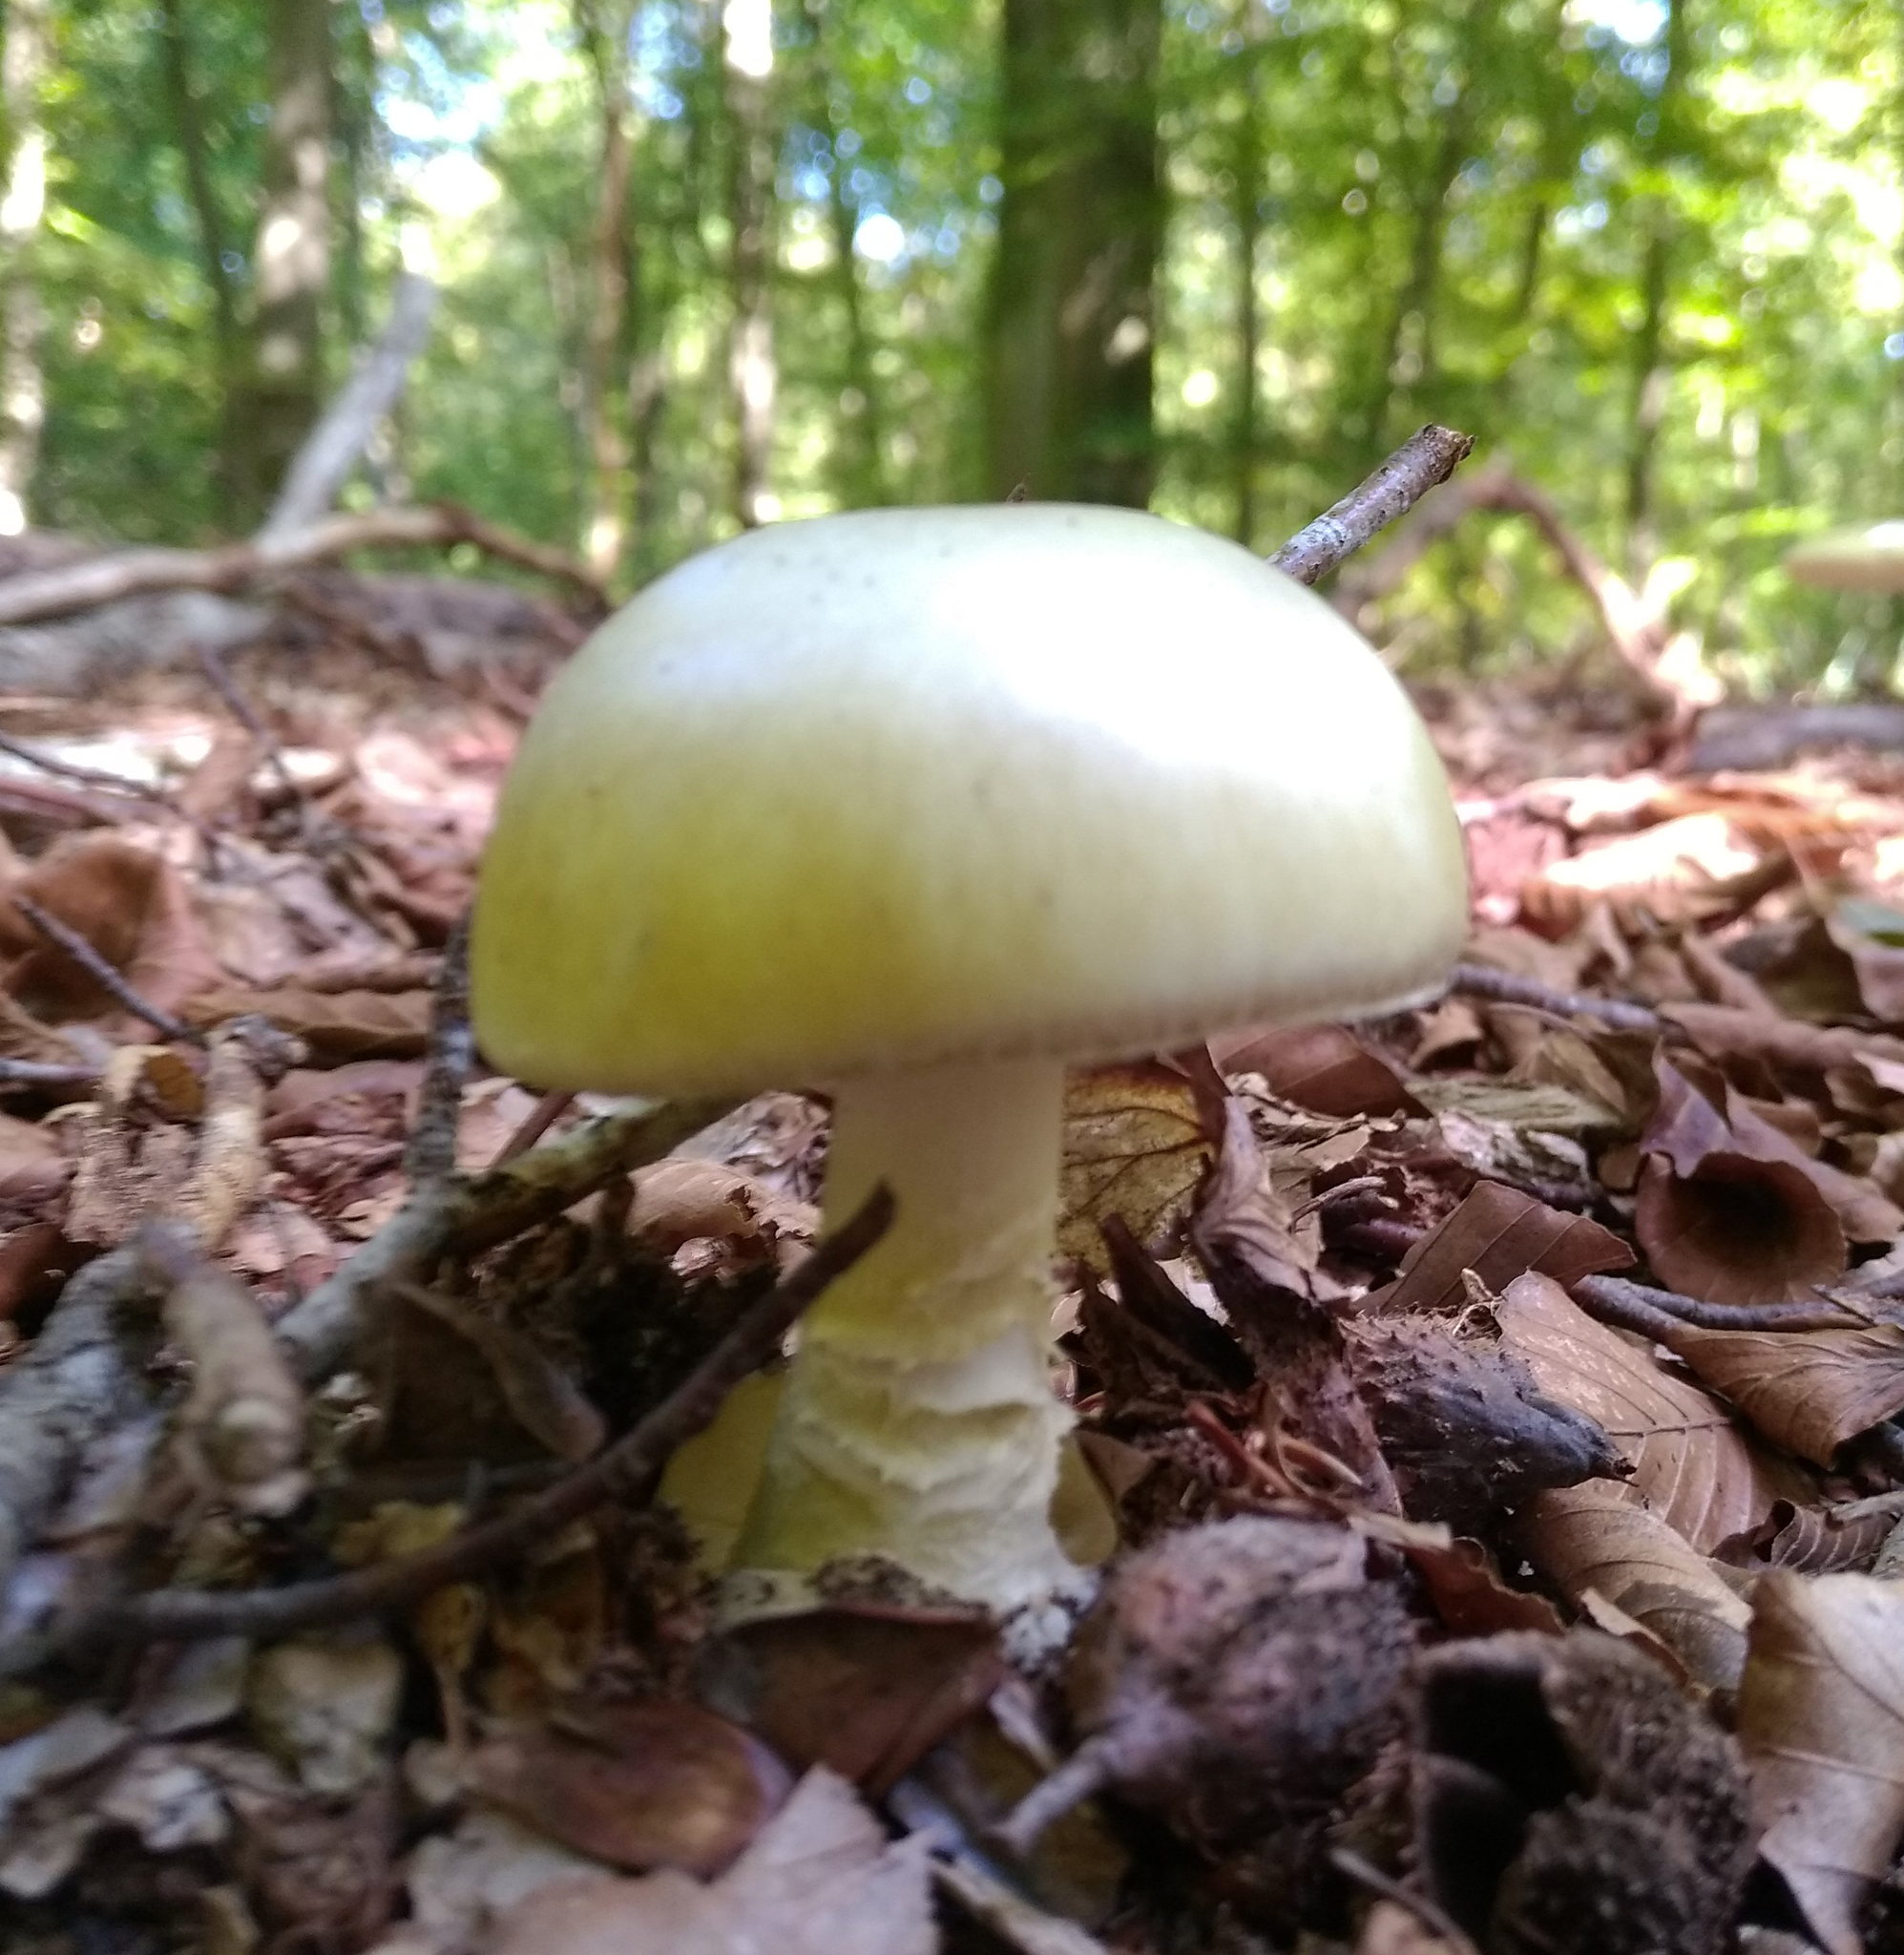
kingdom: Fungi
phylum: Basidiomycota
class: Agaricomycetes
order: Agaricales
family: Amanitaceae
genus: Amanita
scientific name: Amanita phalloides
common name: Death cap
